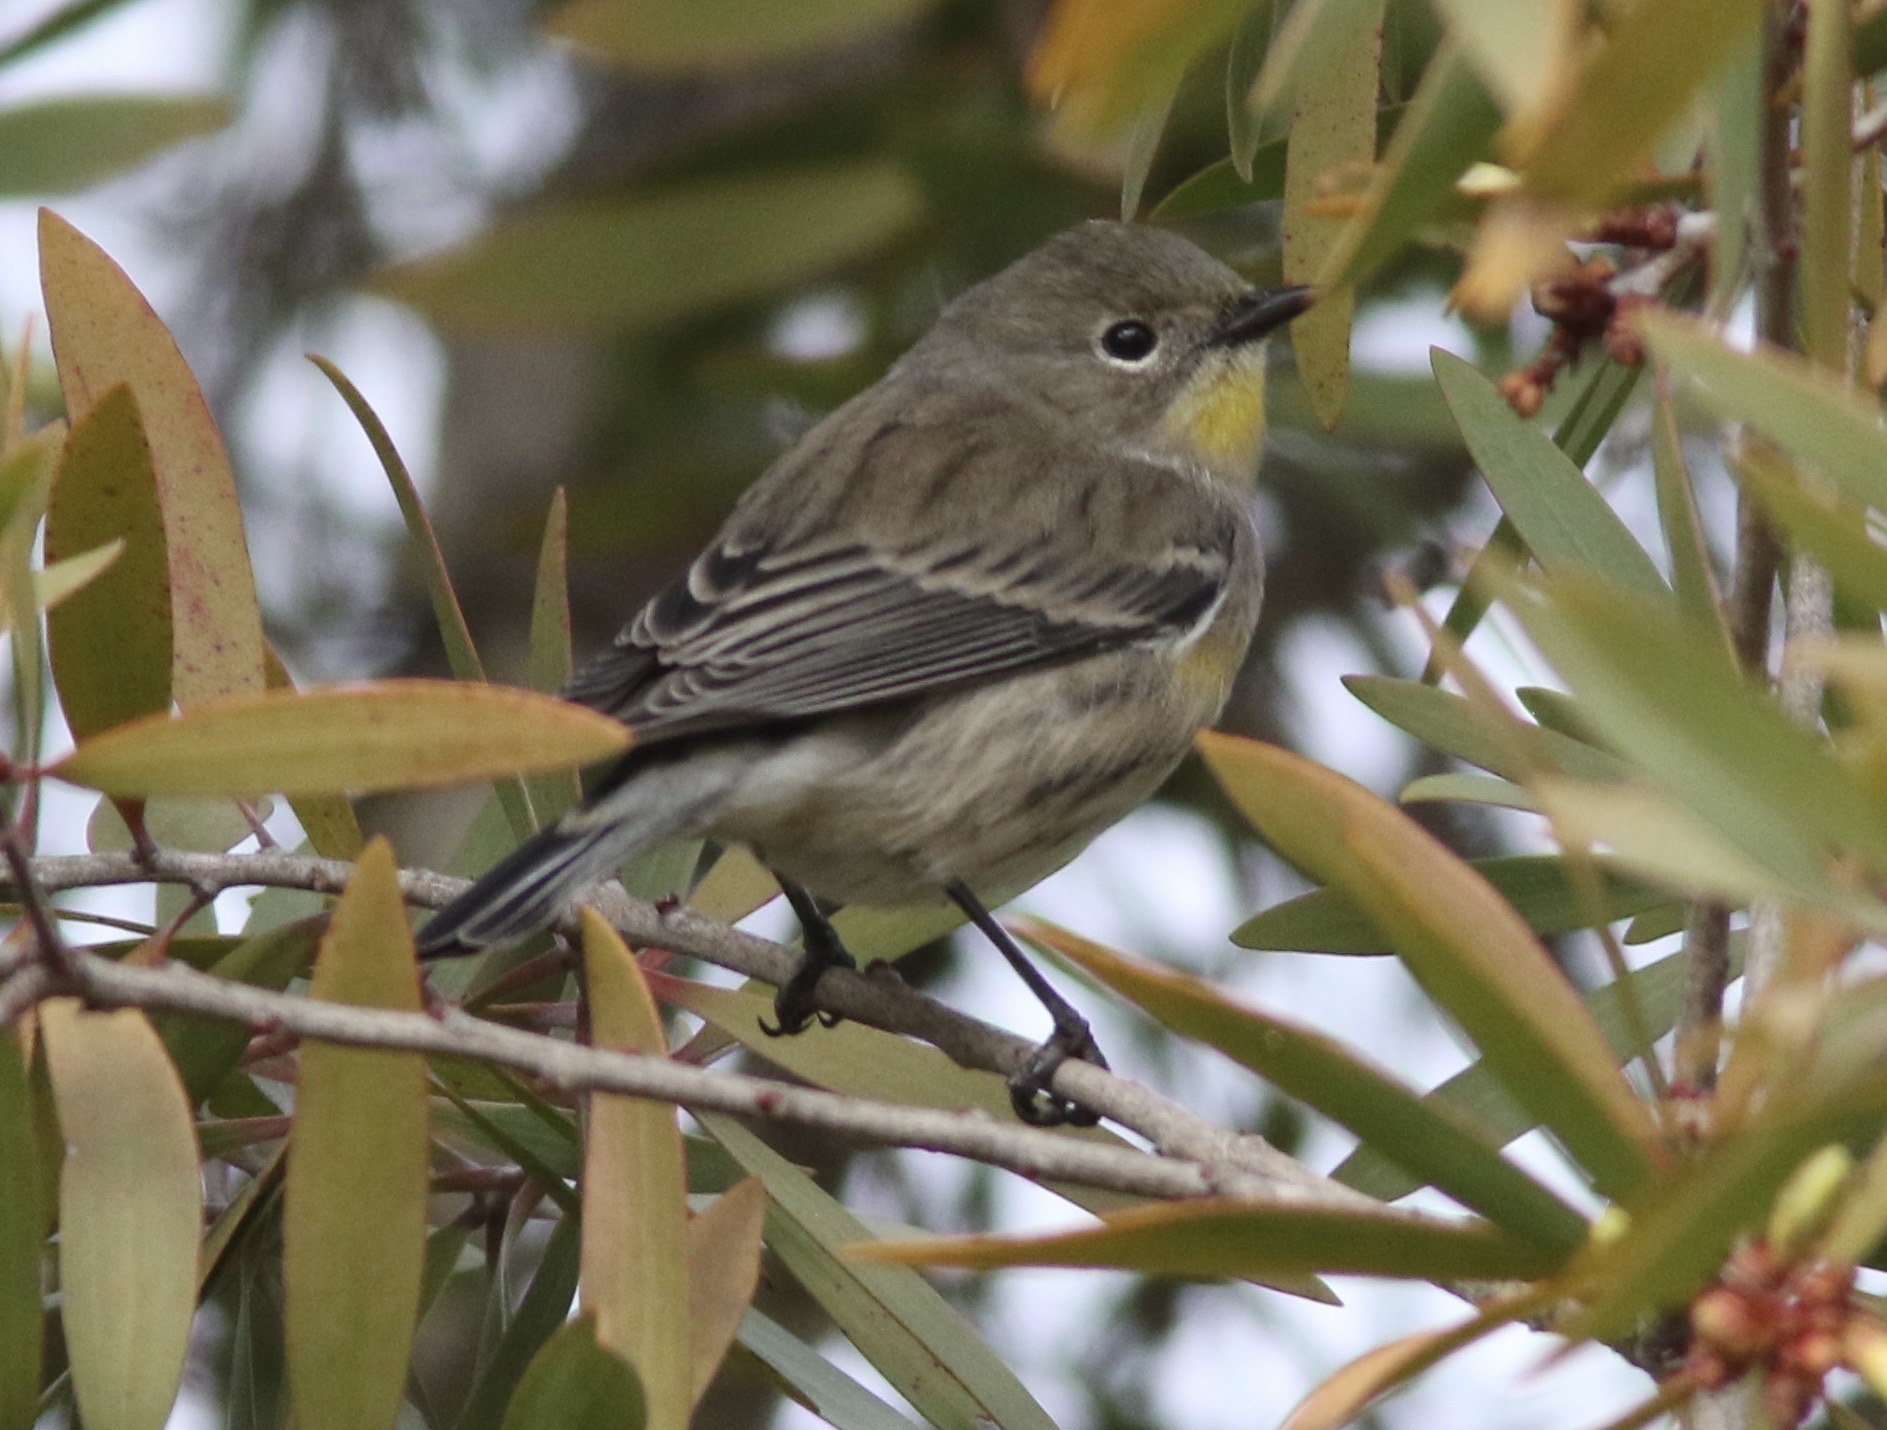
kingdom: Animalia
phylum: Chordata
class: Aves
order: Passeriformes
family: Parulidae
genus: Setophaga
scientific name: Setophaga coronata
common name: Myrtle warbler
